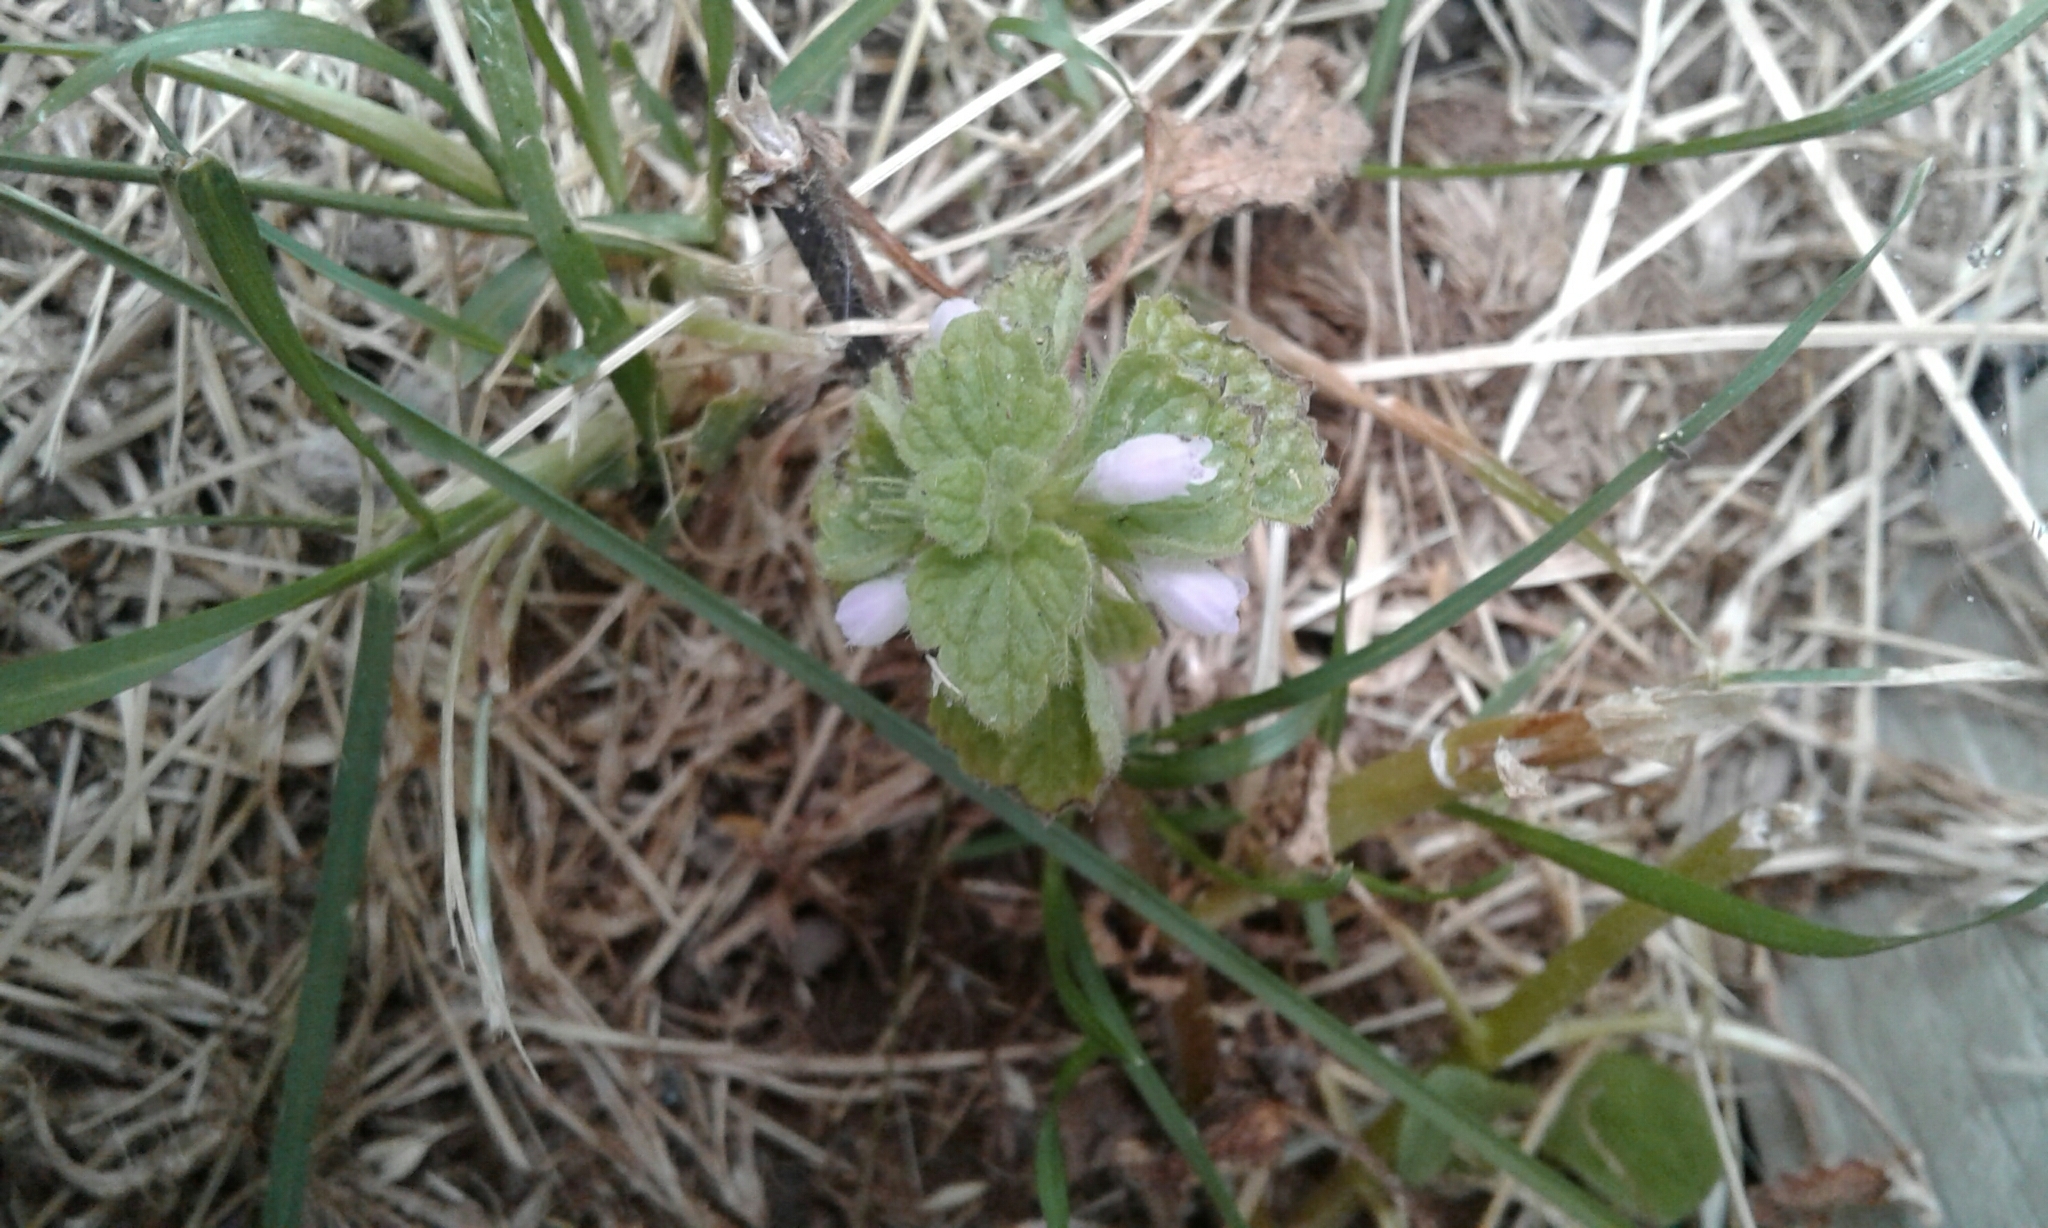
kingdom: Plantae
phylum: Tracheophyta
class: Magnoliopsida
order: Lamiales
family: Lamiaceae
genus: Lamium
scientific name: Lamium purpureum
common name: Red dead-nettle
